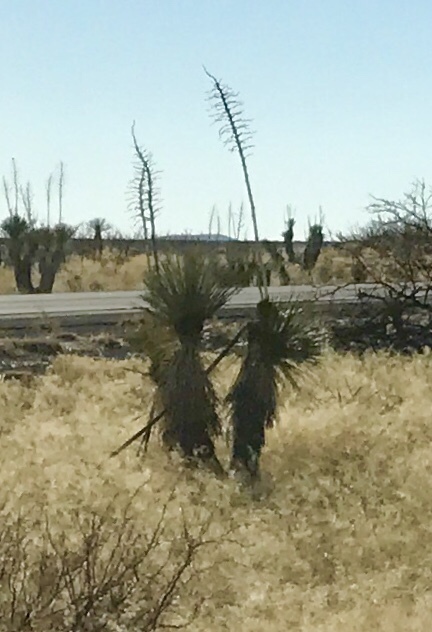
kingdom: Plantae
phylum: Tracheophyta
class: Liliopsida
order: Asparagales
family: Asparagaceae
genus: Yucca
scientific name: Yucca elata
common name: Palmella
